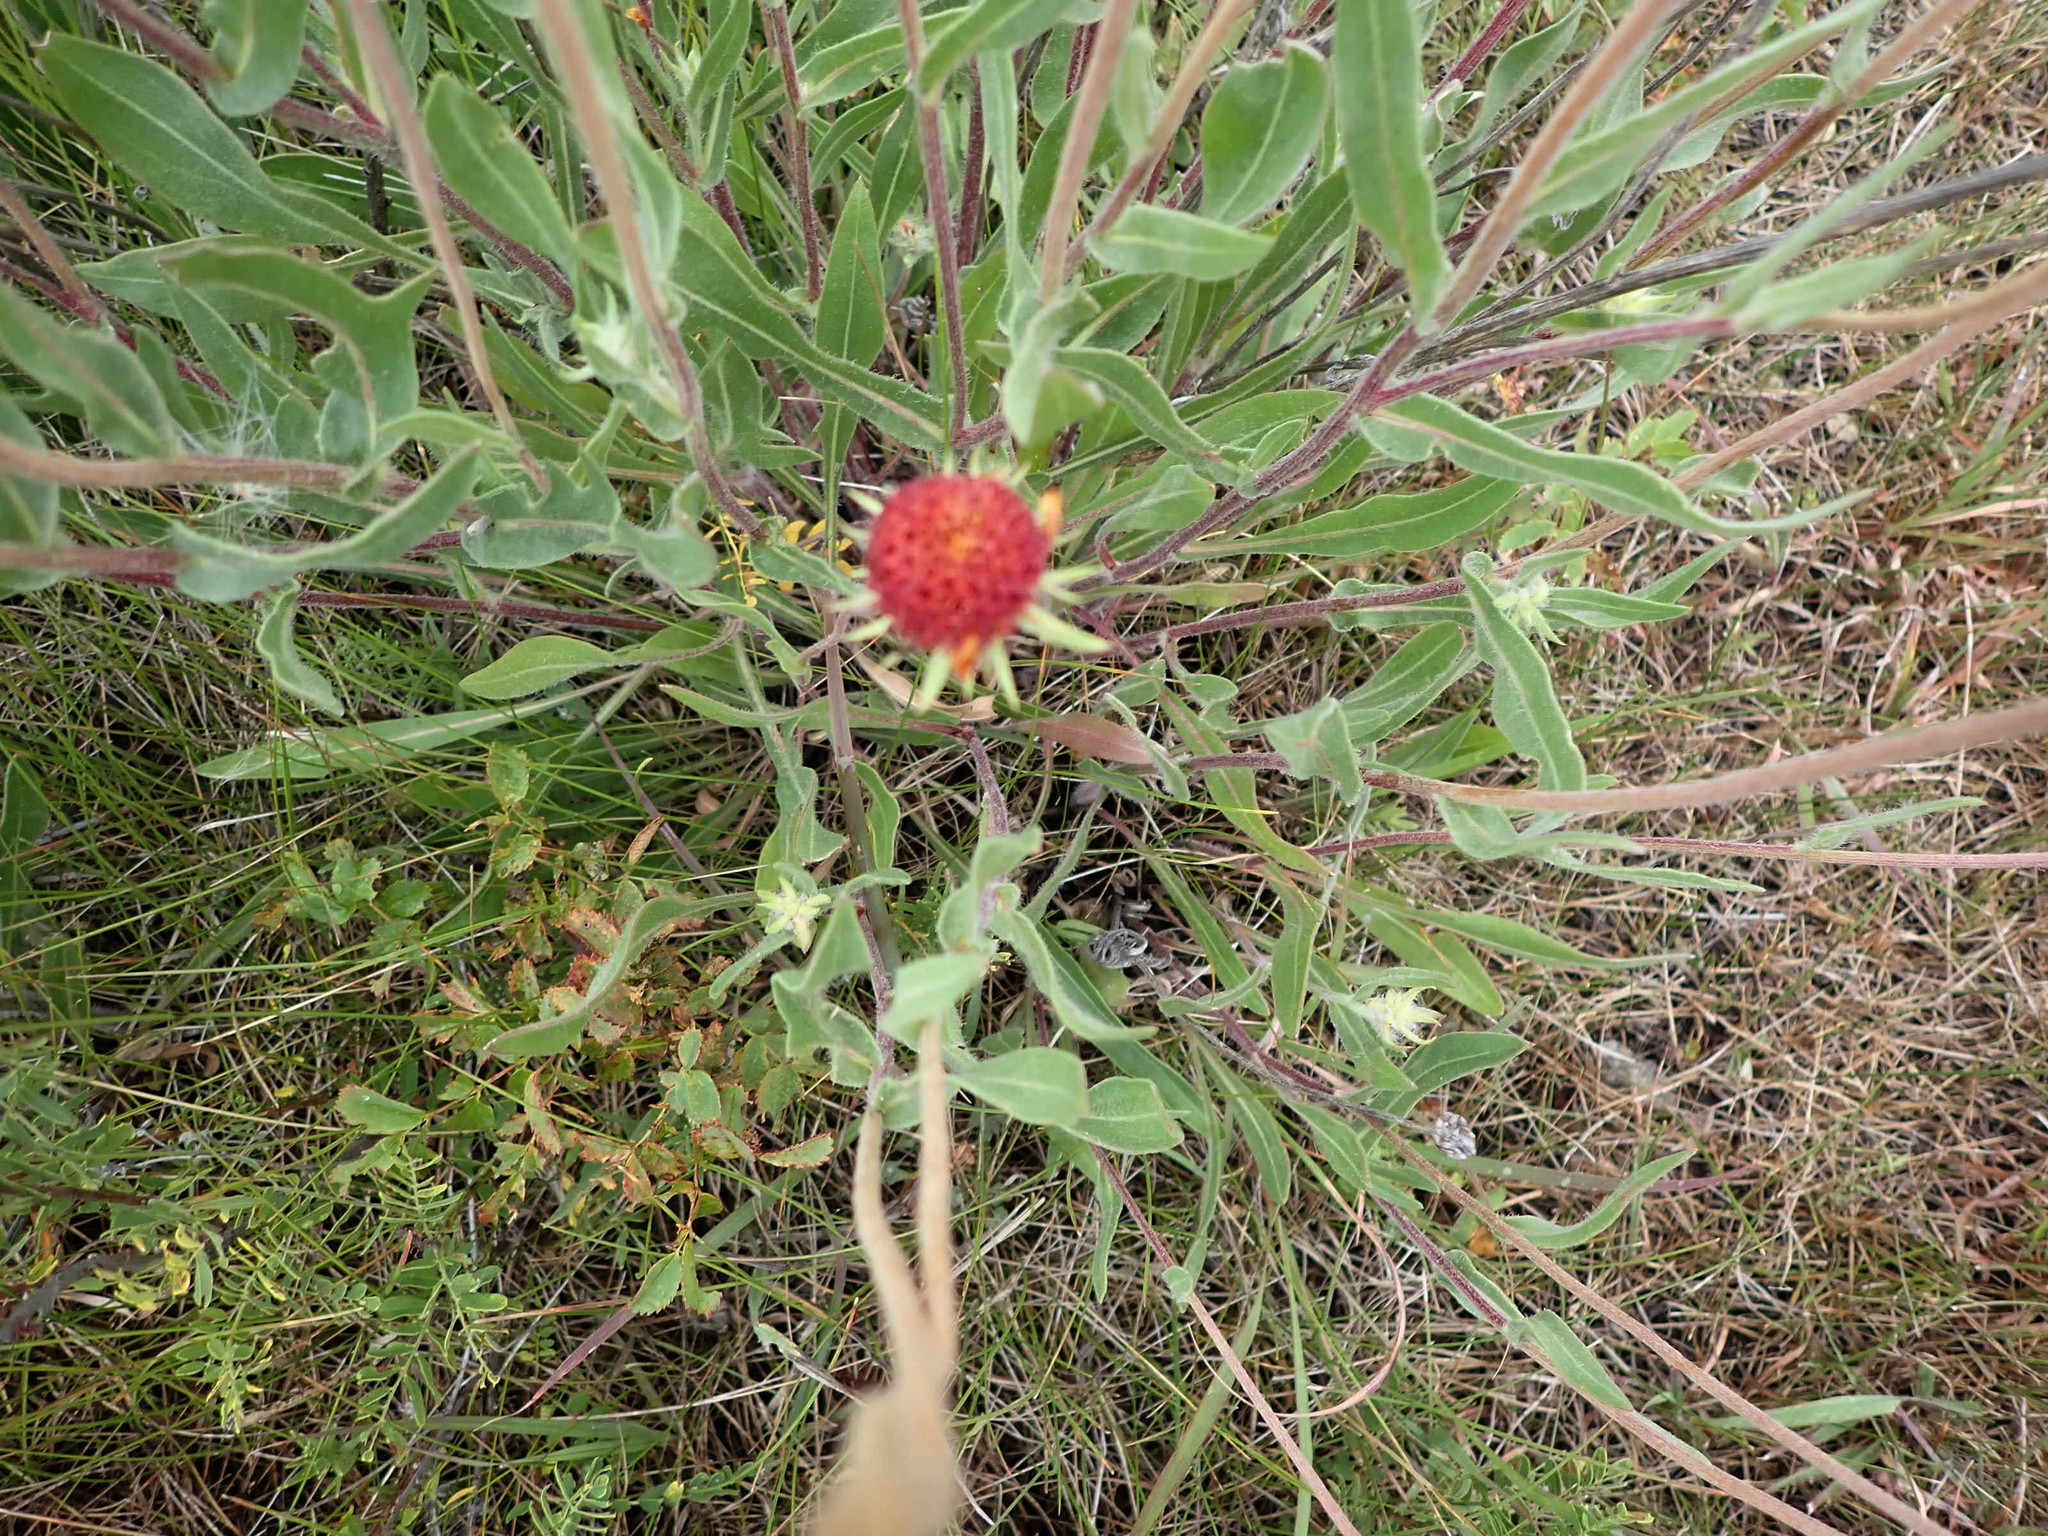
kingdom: Plantae
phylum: Tracheophyta
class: Magnoliopsida
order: Asterales
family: Asteraceae
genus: Gaillardia
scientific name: Gaillardia aristata
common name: Blanket-flower
